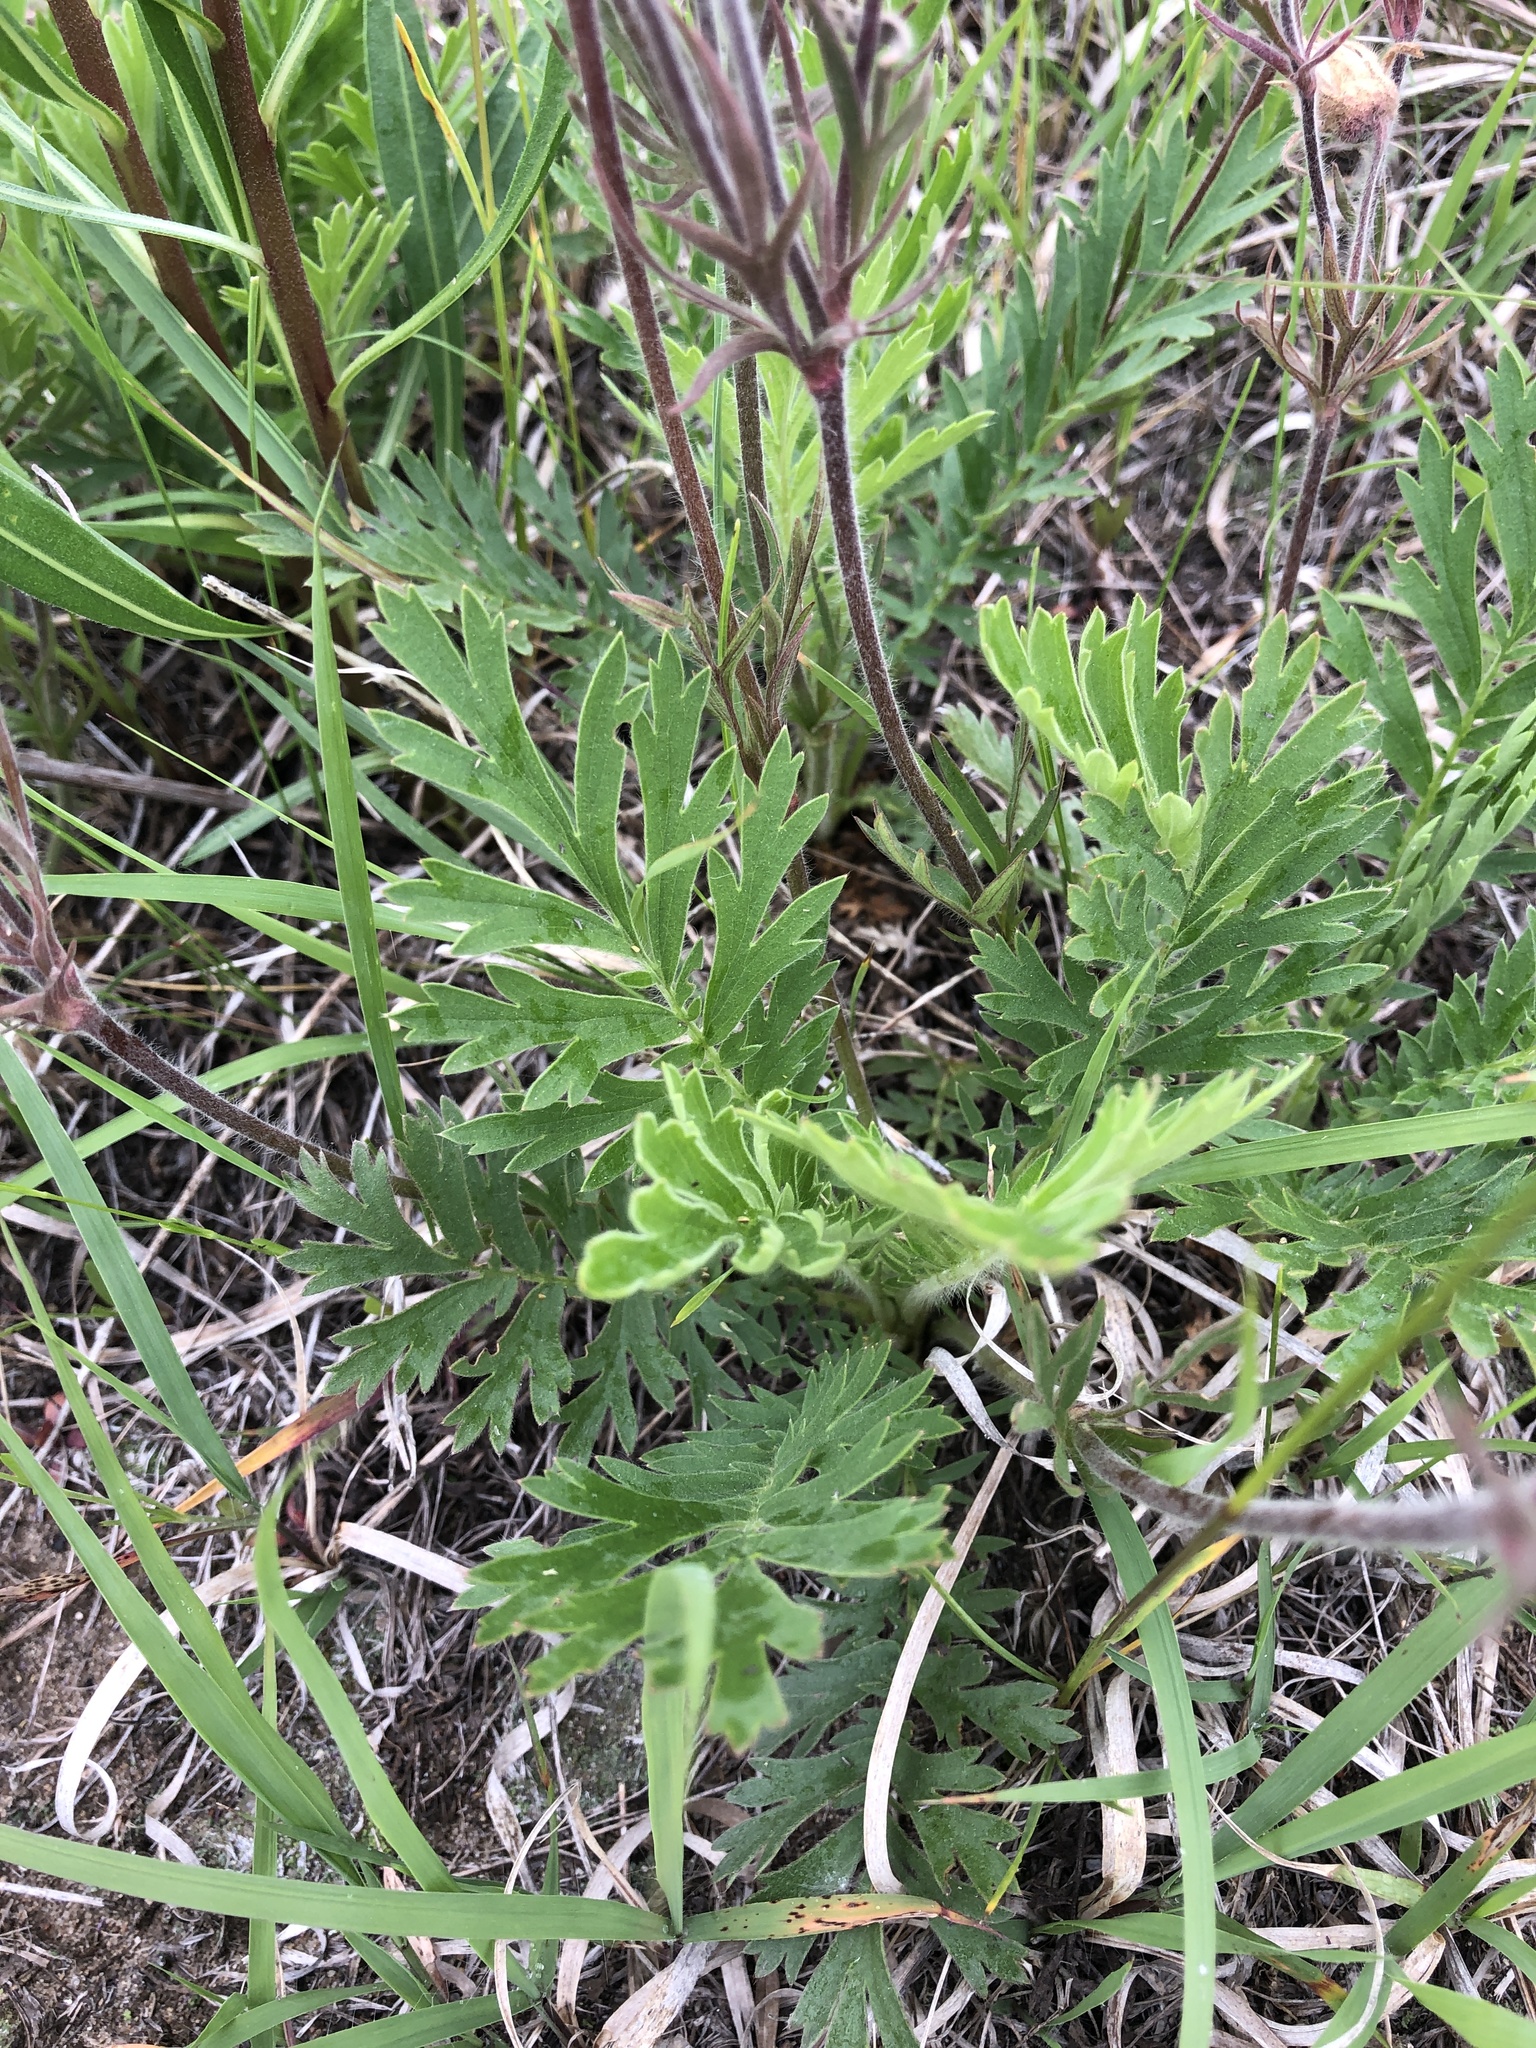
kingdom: Plantae
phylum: Tracheophyta
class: Magnoliopsida
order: Rosales
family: Rosaceae
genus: Geum
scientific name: Geum triflorum
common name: Old man's whiskers
